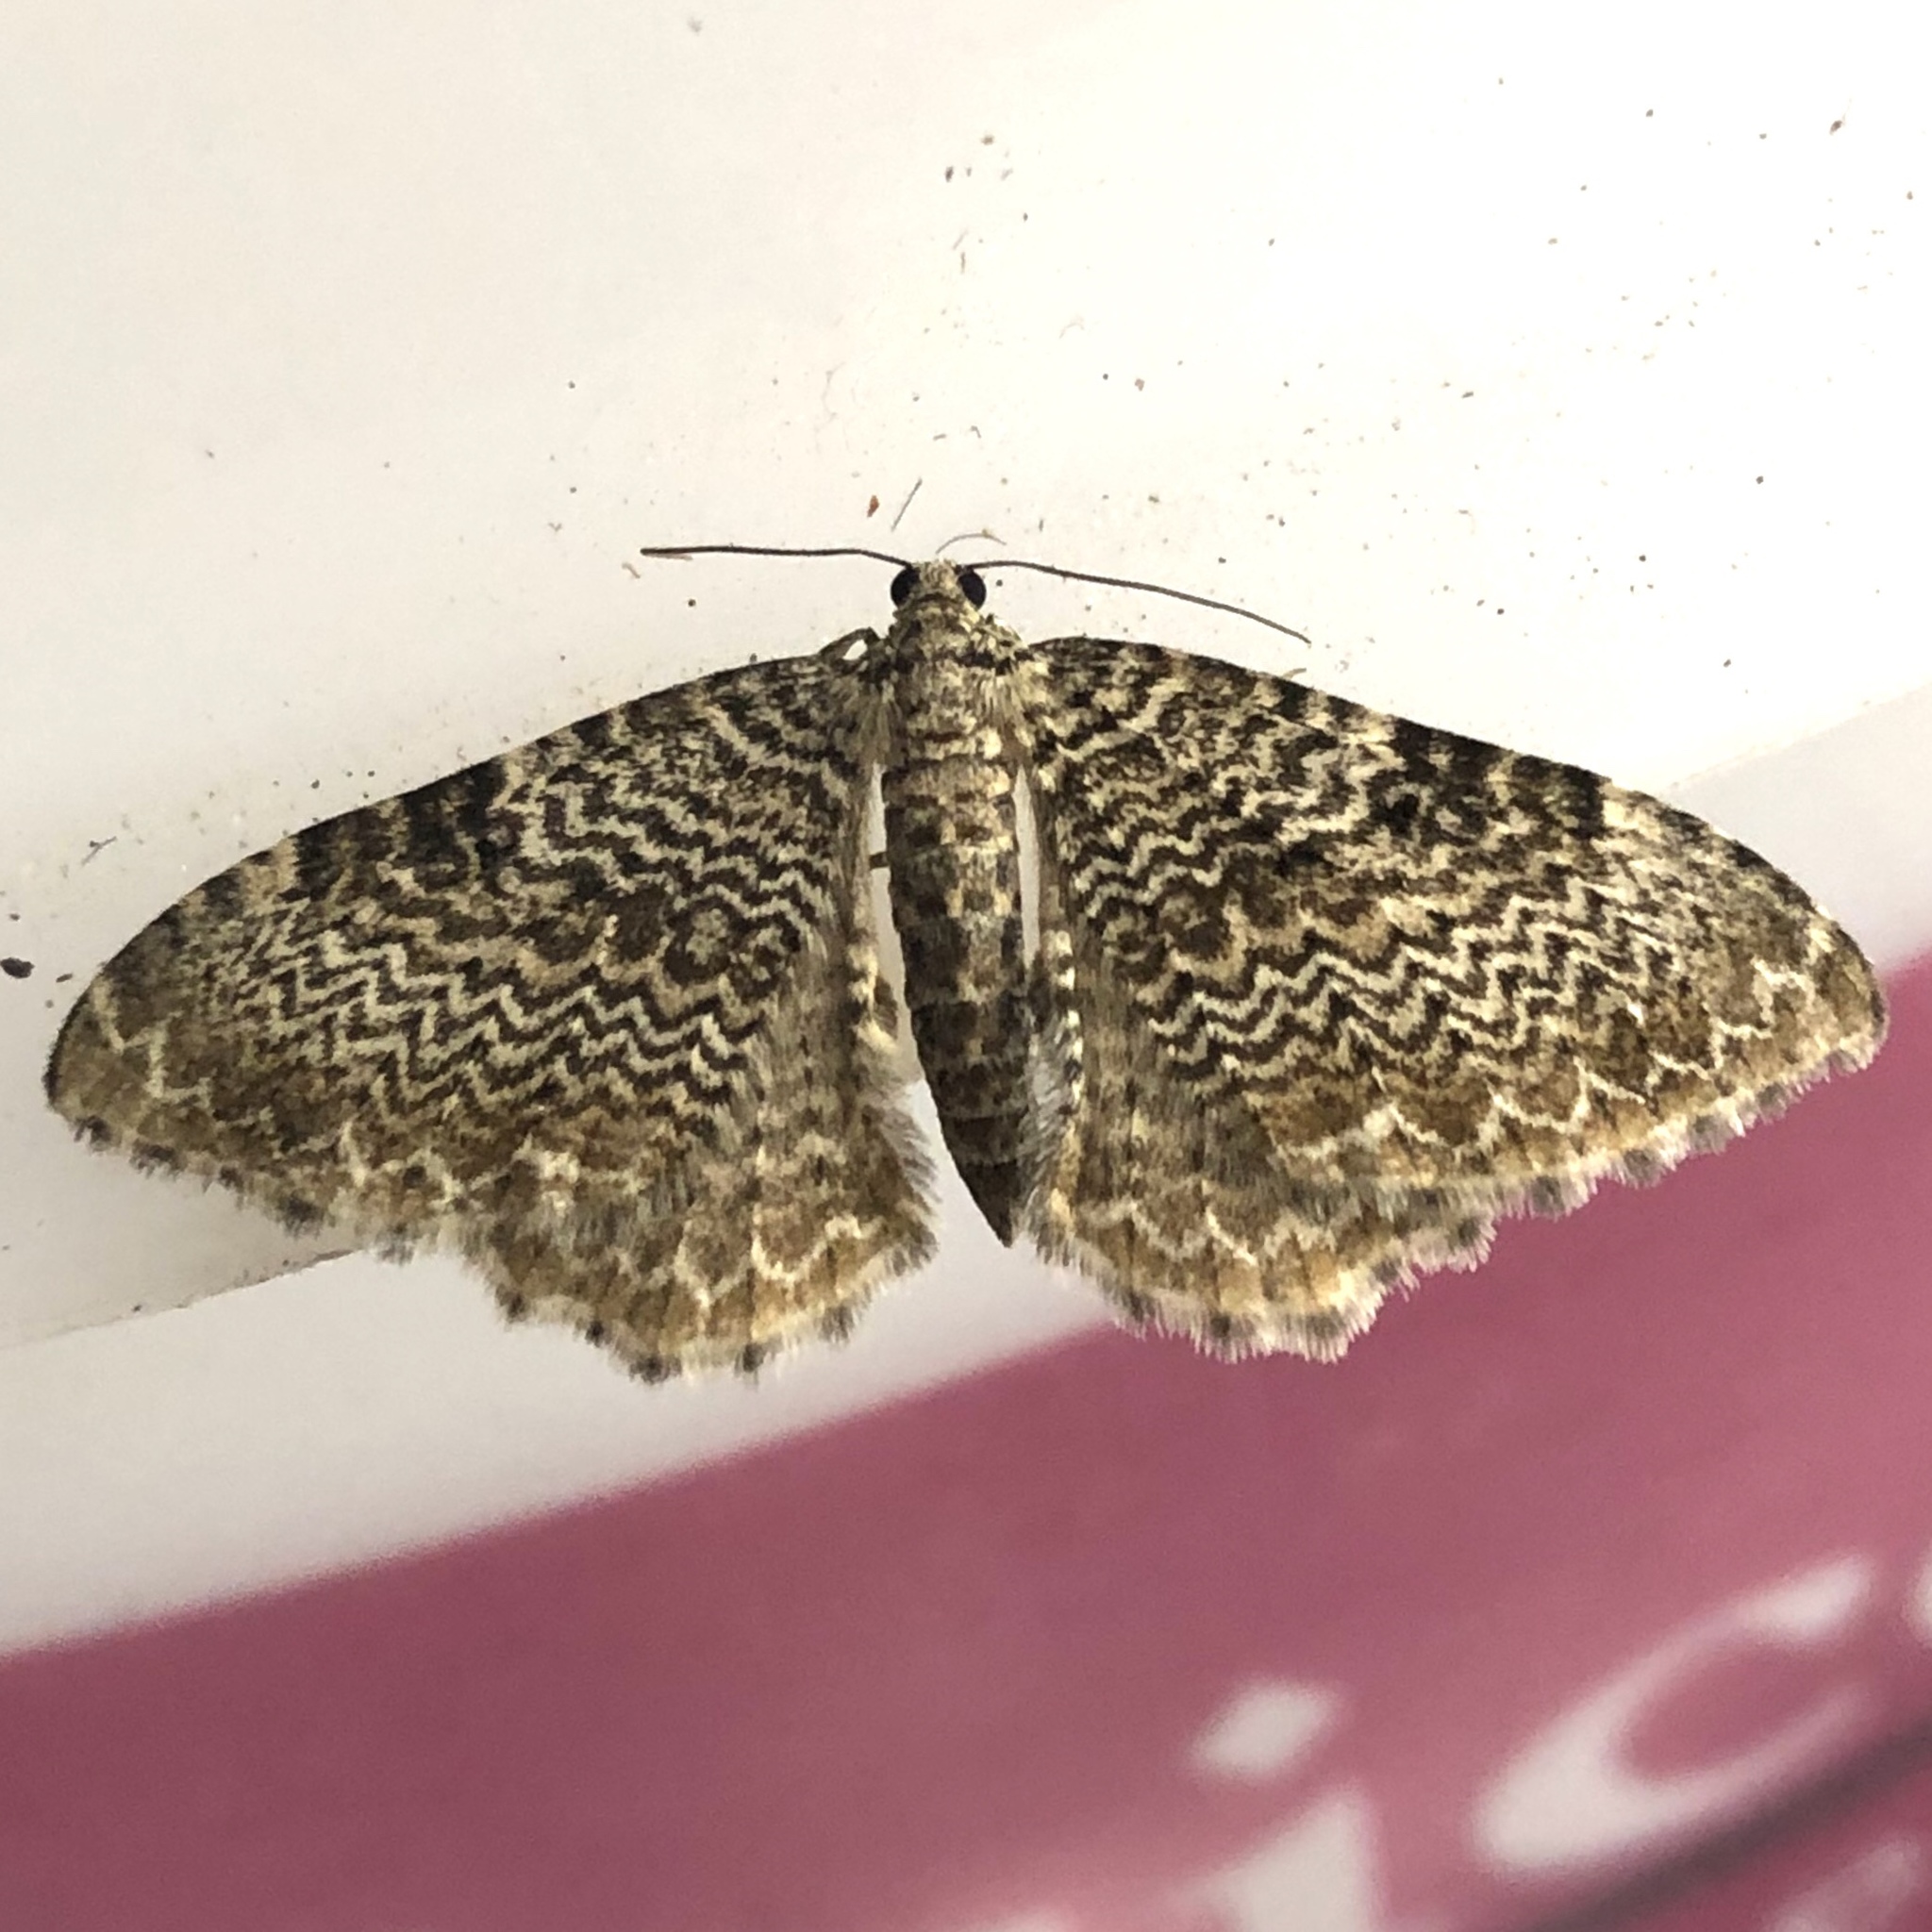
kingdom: Animalia
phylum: Arthropoda
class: Insecta
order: Lepidoptera
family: Geometridae
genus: Rheumaptera
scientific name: Rheumaptera prunivorata
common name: Cherry scallop shell moth
